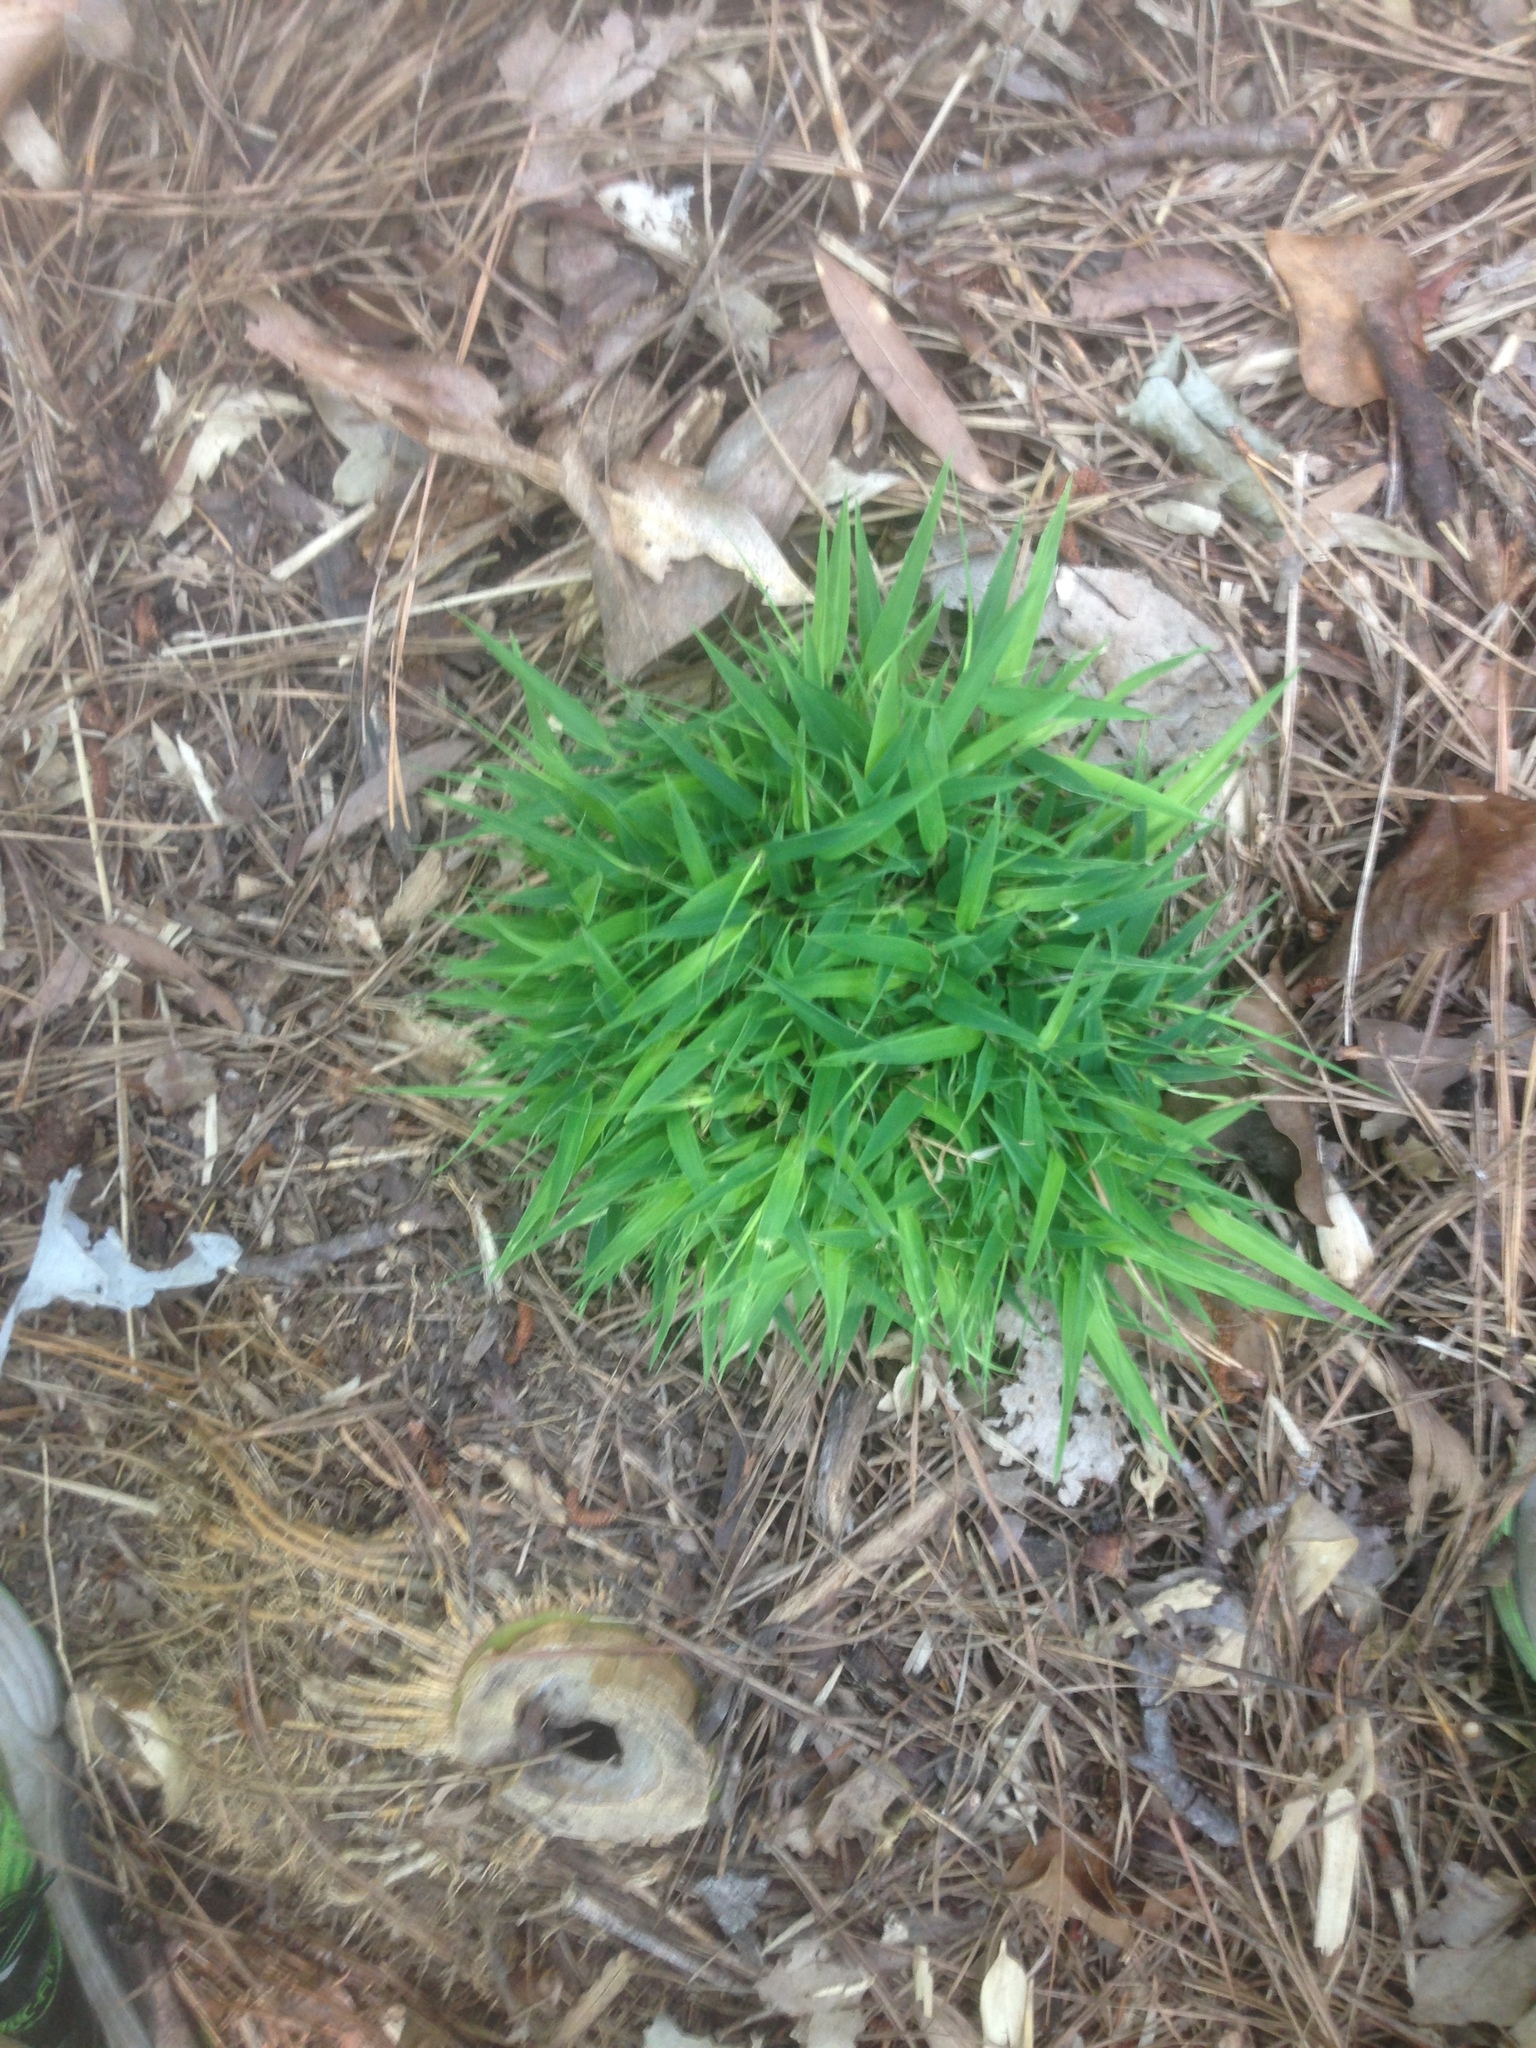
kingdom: Plantae
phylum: Tracheophyta
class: Liliopsida
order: Poales
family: Poaceae
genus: Phyllostachys
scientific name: Phyllostachys aurea
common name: Golden bamboo
